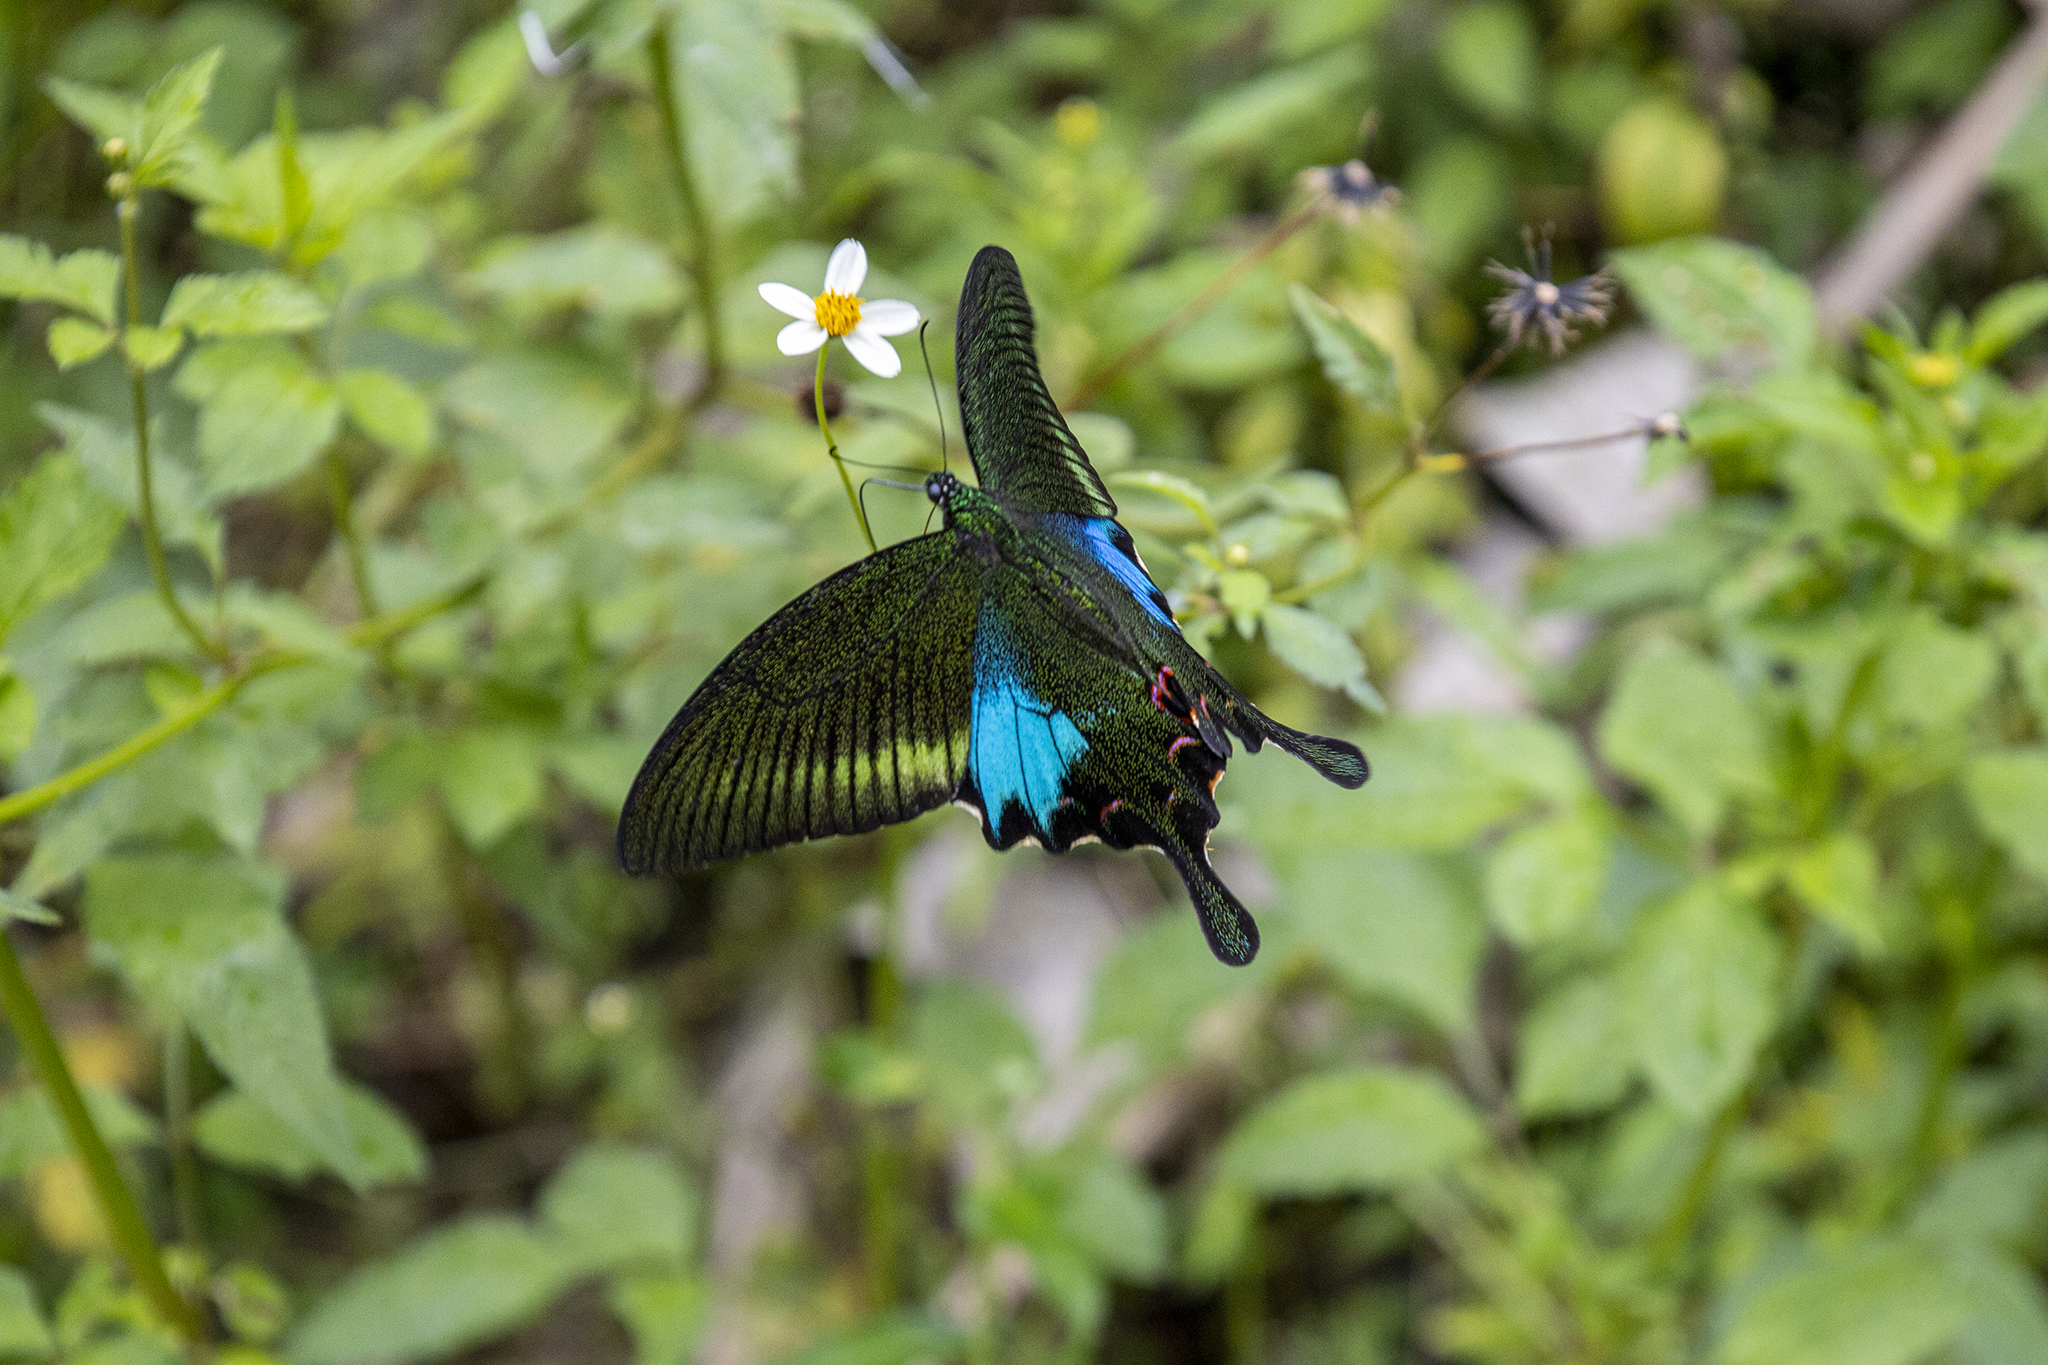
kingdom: Animalia
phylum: Arthropoda
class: Insecta
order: Lepidoptera
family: Papilionidae
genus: Papilio
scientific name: Papilio paris
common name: Paris peacock
